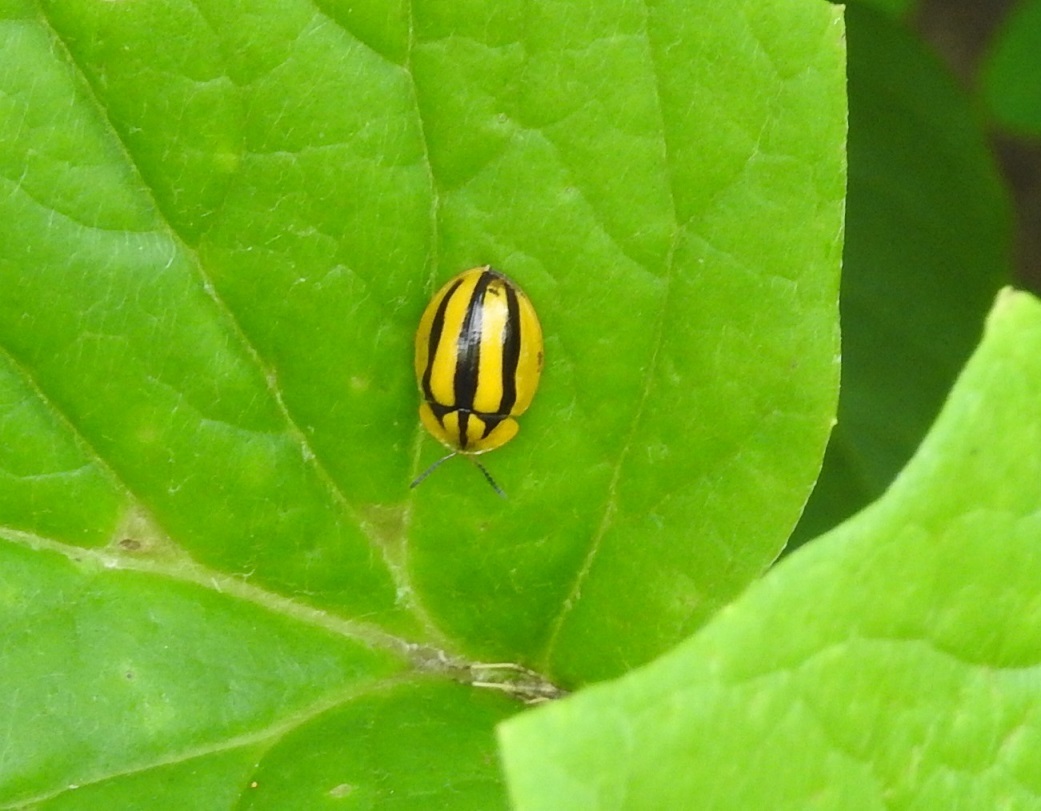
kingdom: Animalia
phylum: Arthropoda
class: Insecta
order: Coleoptera
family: Chrysomelidae
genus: Physonota
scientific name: Physonota disjuncta
